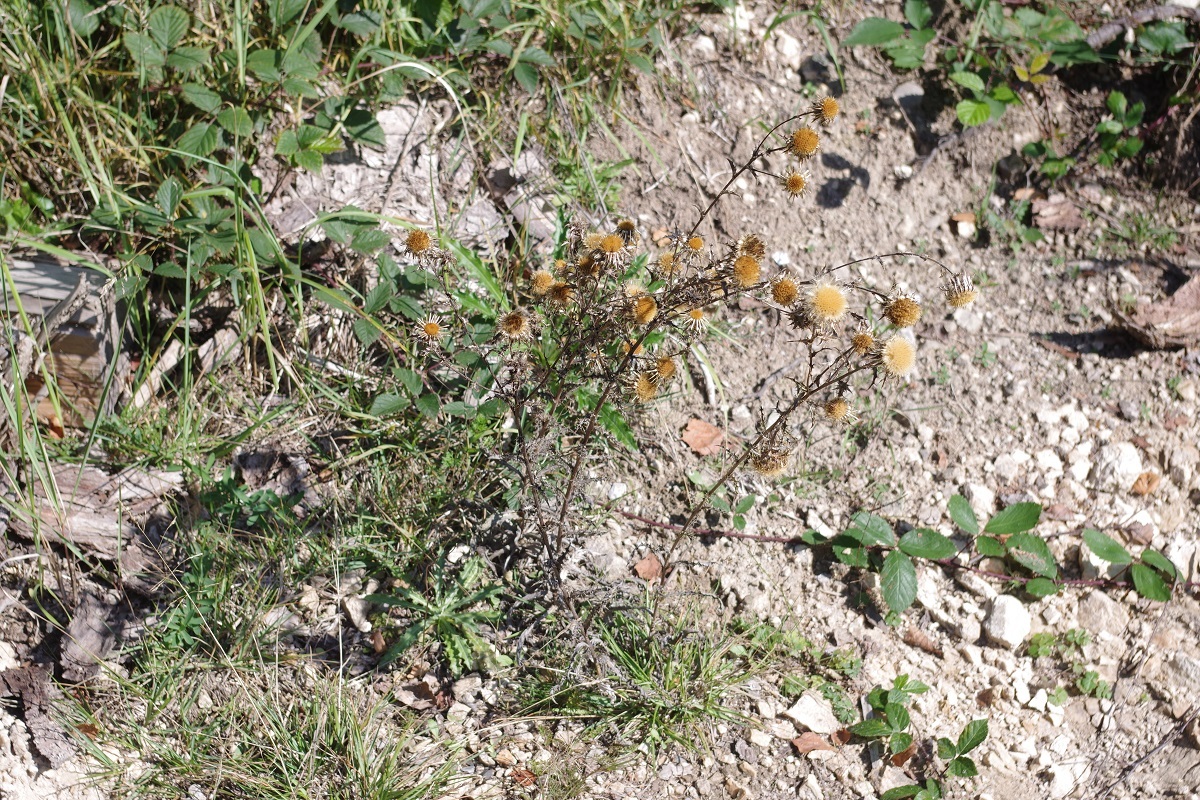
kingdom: Plantae
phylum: Tracheophyta
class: Magnoliopsida
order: Asterales
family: Asteraceae
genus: Carlina
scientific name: Carlina vulgaris
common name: Carline thistle
